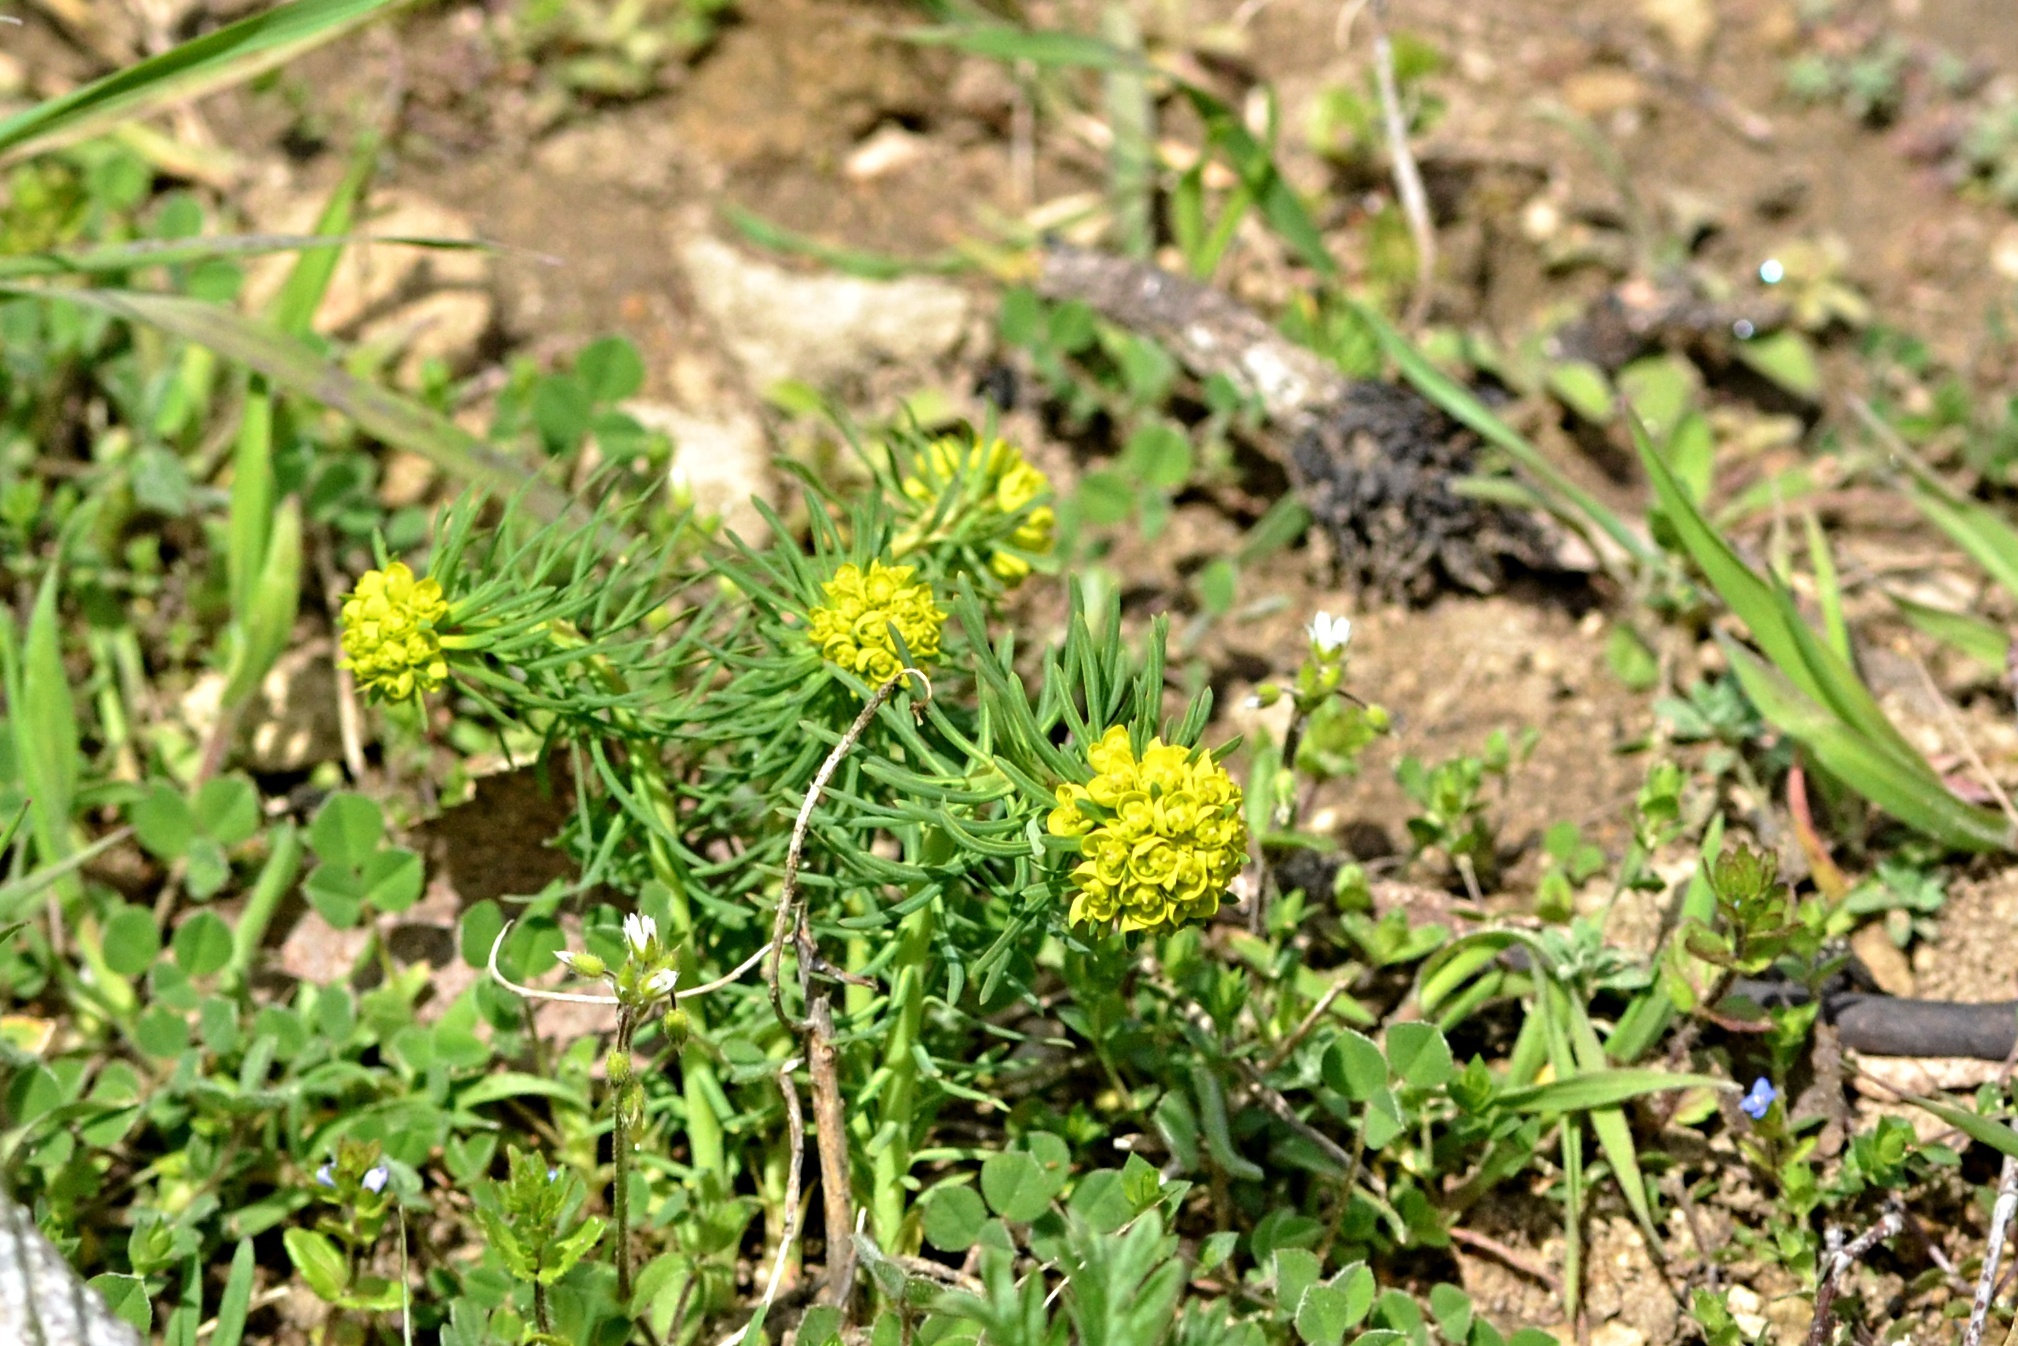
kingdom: Plantae
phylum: Tracheophyta
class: Magnoliopsida
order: Malpighiales
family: Euphorbiaceae
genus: Euphorbia
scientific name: Euphorbia cyparissias
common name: Cypress spurge
